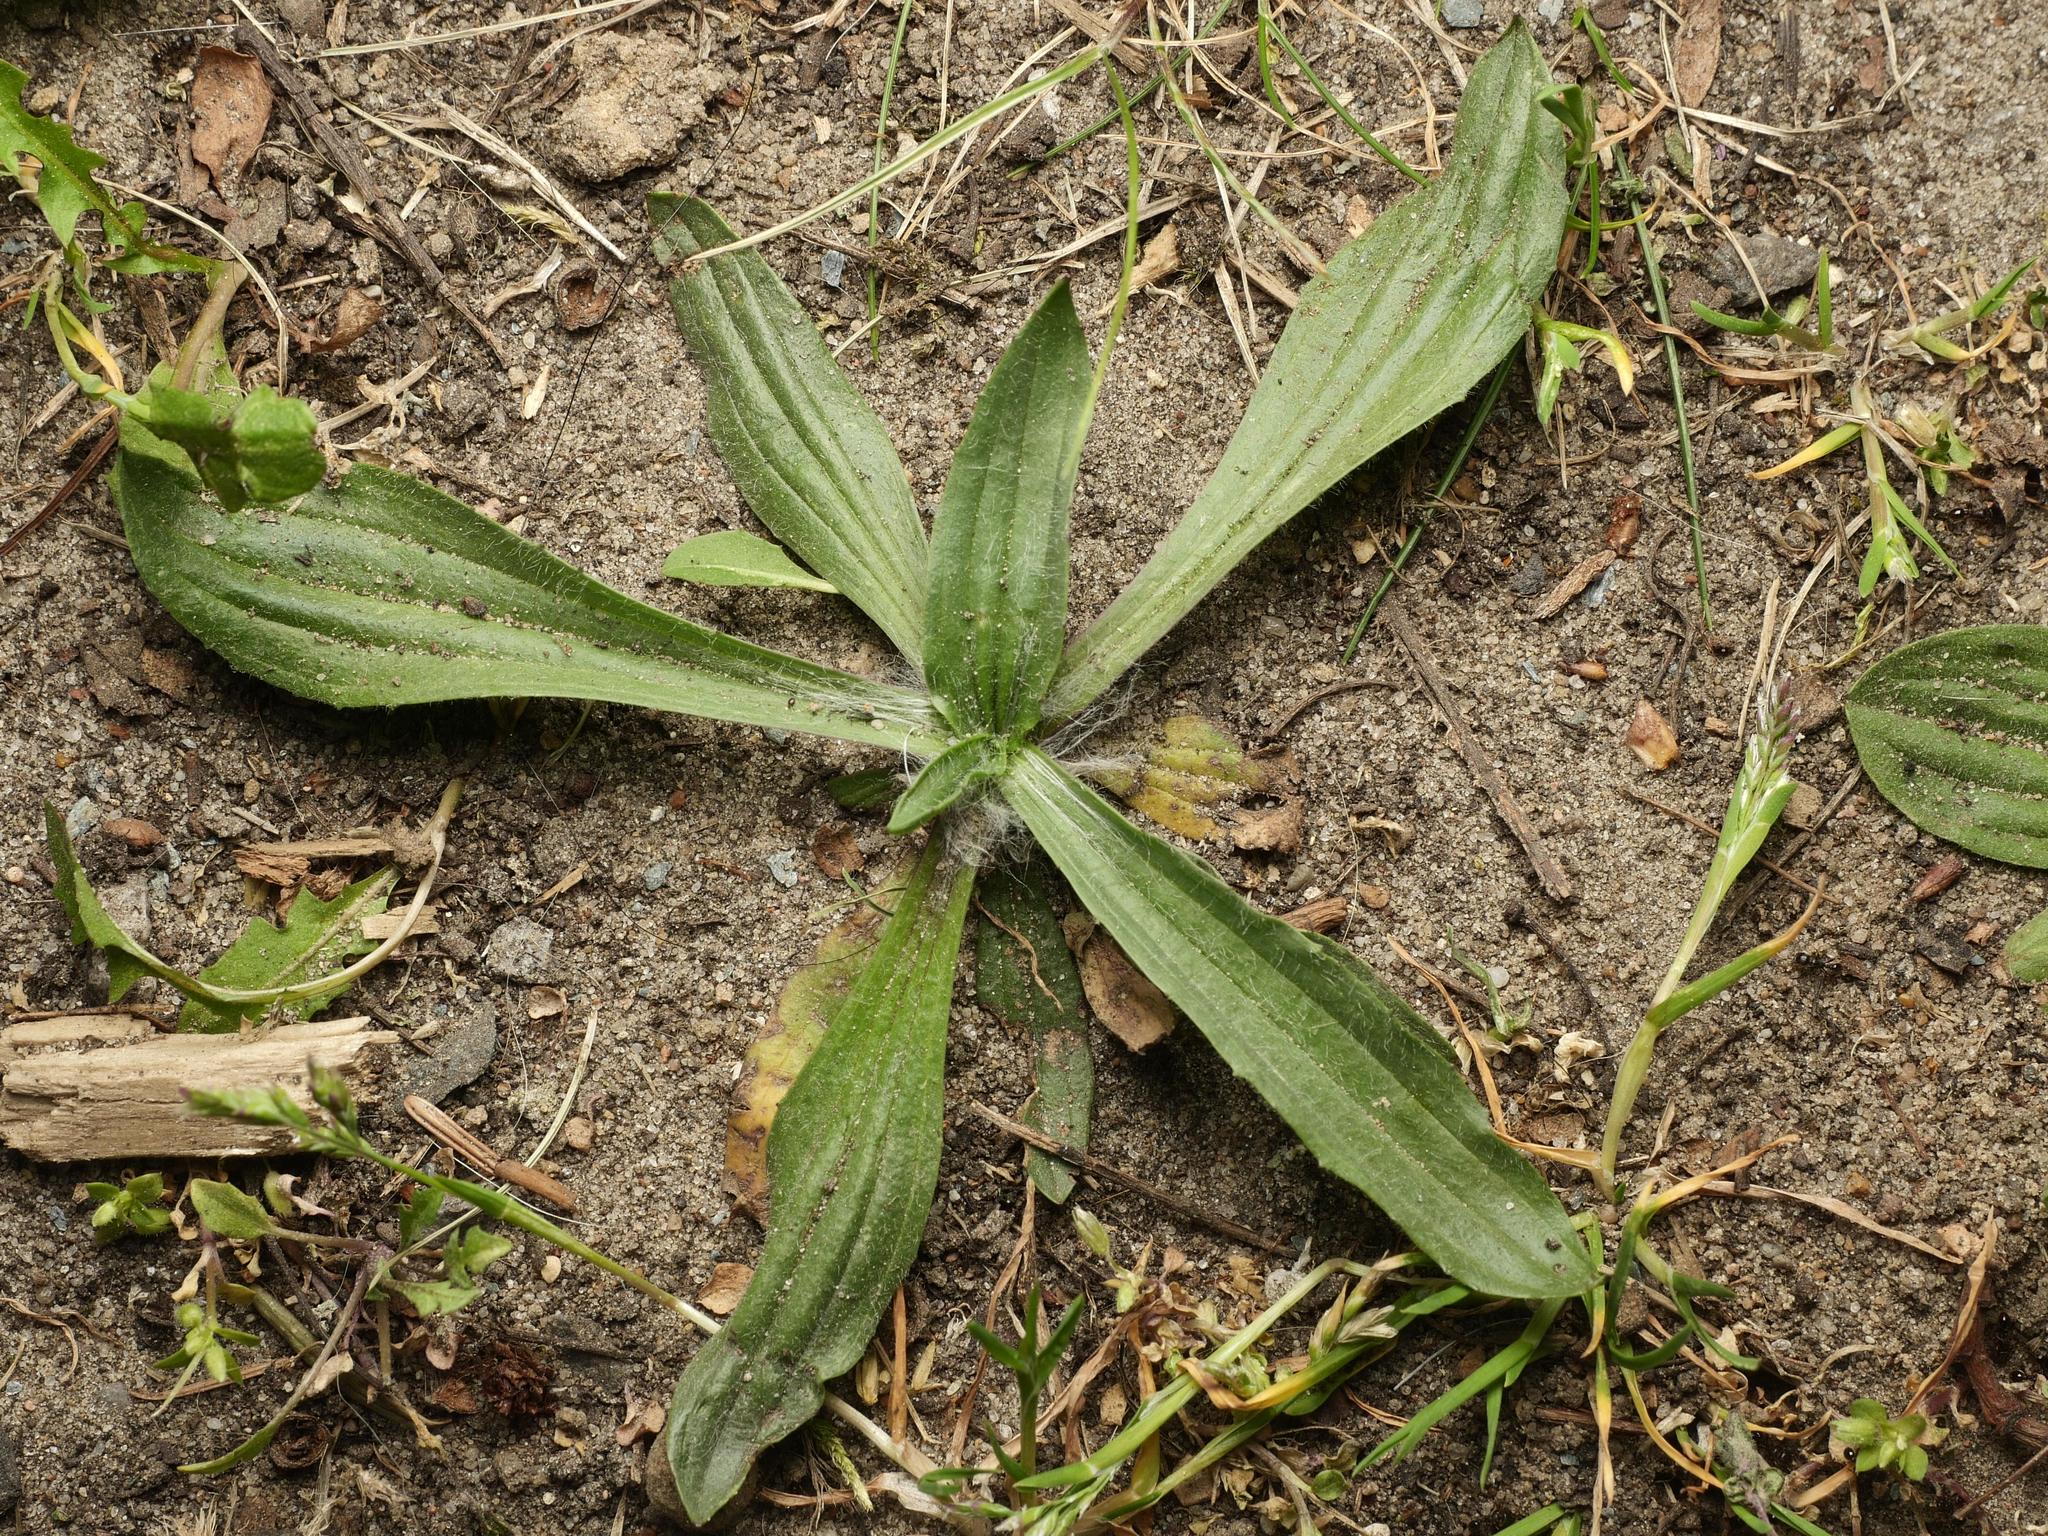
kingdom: Plantae
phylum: Tracheophyta
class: Magnoliopsida
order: Lamiales
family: Plantaginaceae
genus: Plantago
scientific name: Plantago lanceolata
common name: Ribwort plantain
